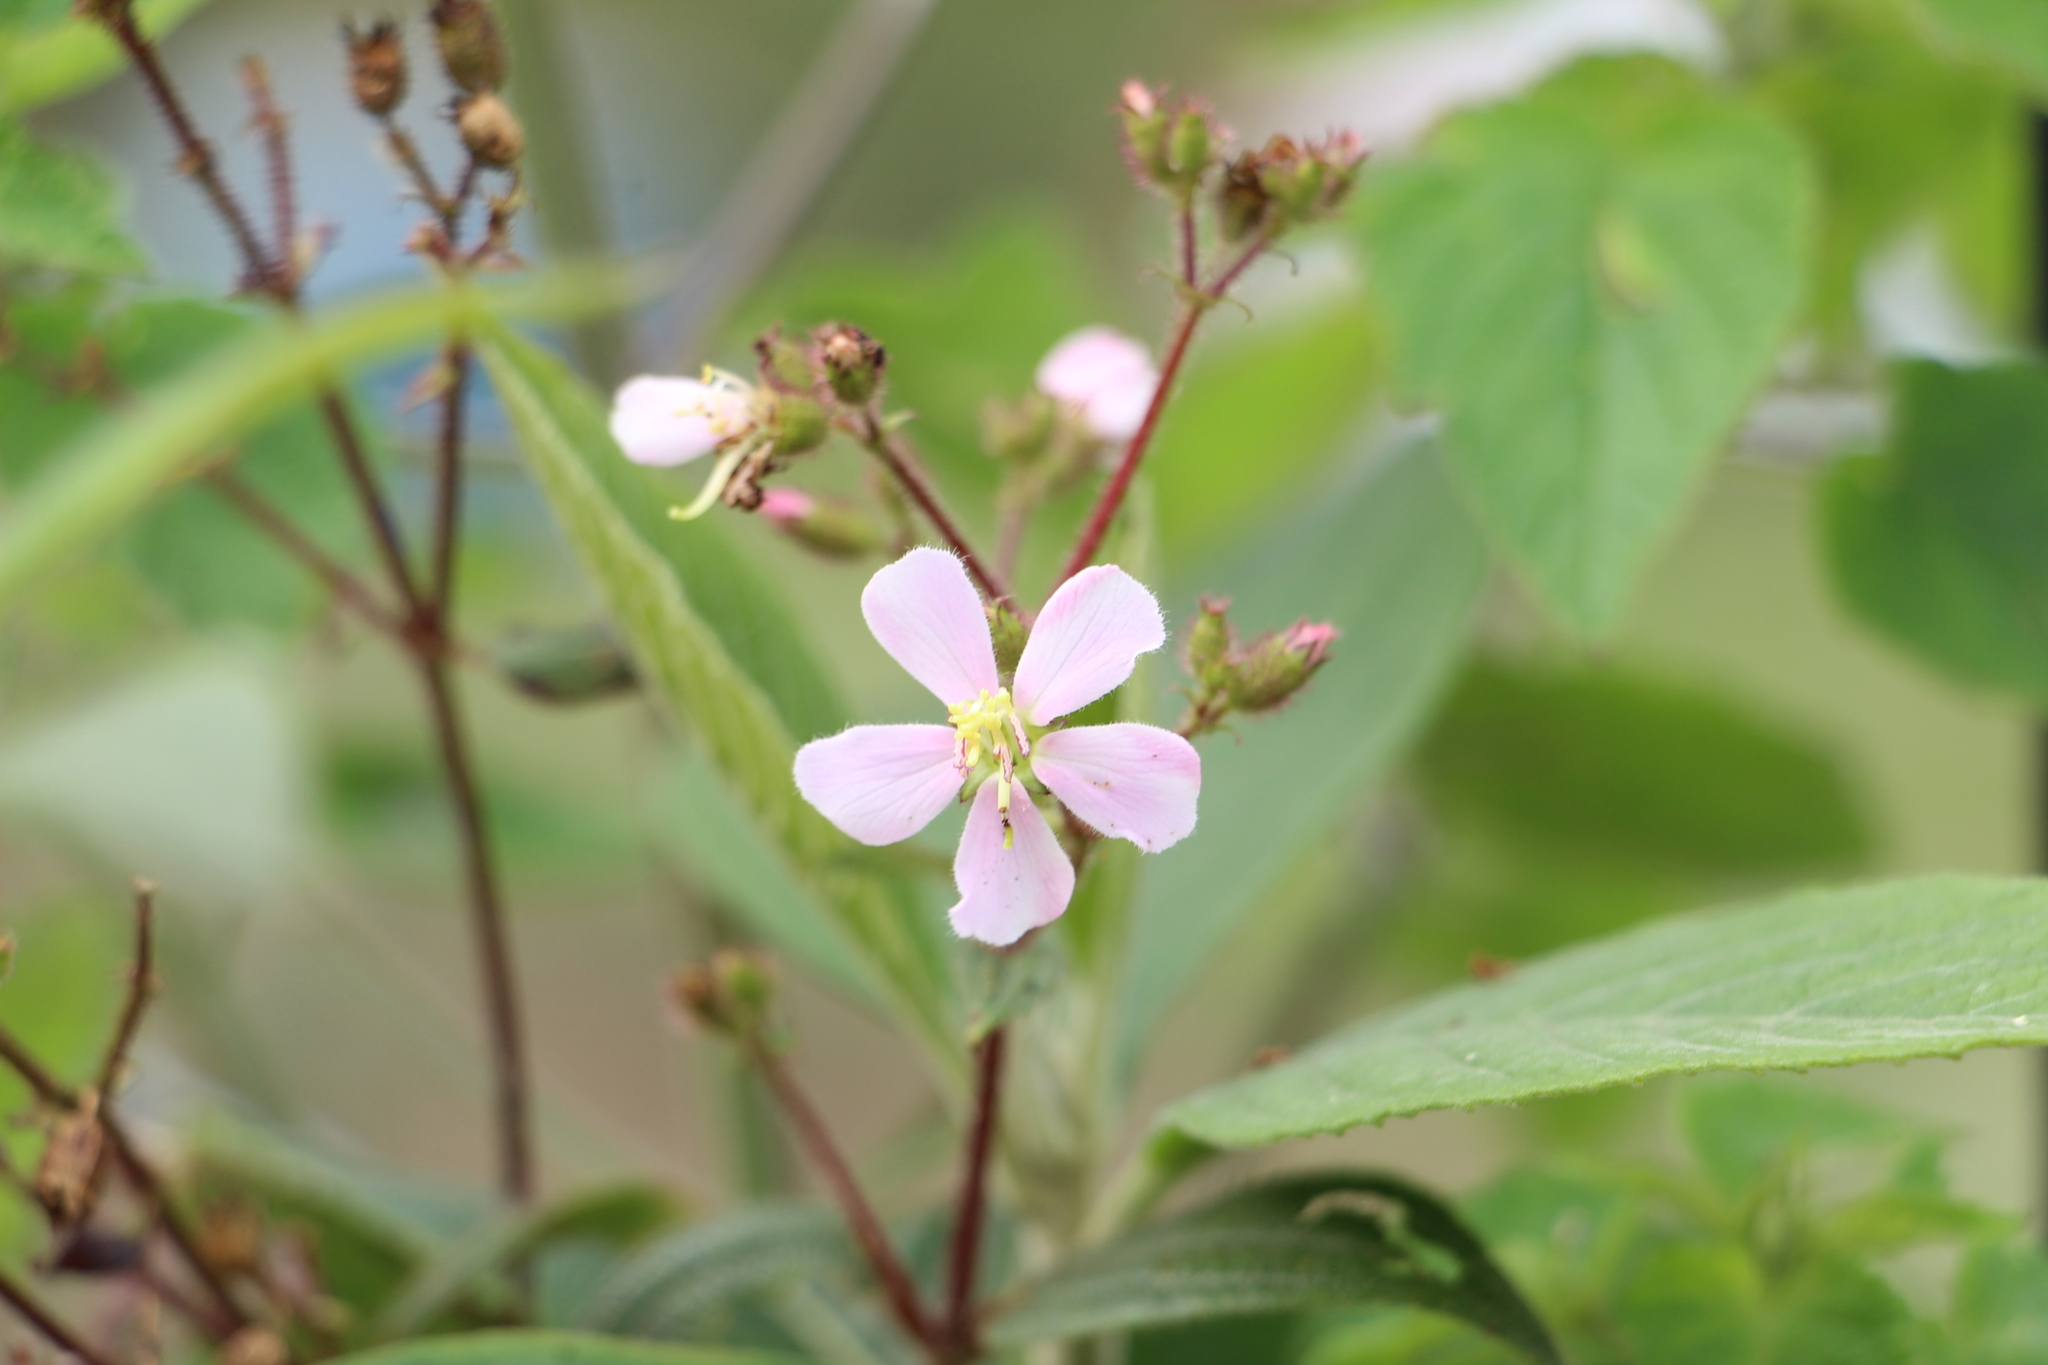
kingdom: Plantae
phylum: Tracheophyta
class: Magnoliopsida
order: Myrtales
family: Melastomataceae
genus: Chaetogastra
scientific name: Chaetogastra longifolia
